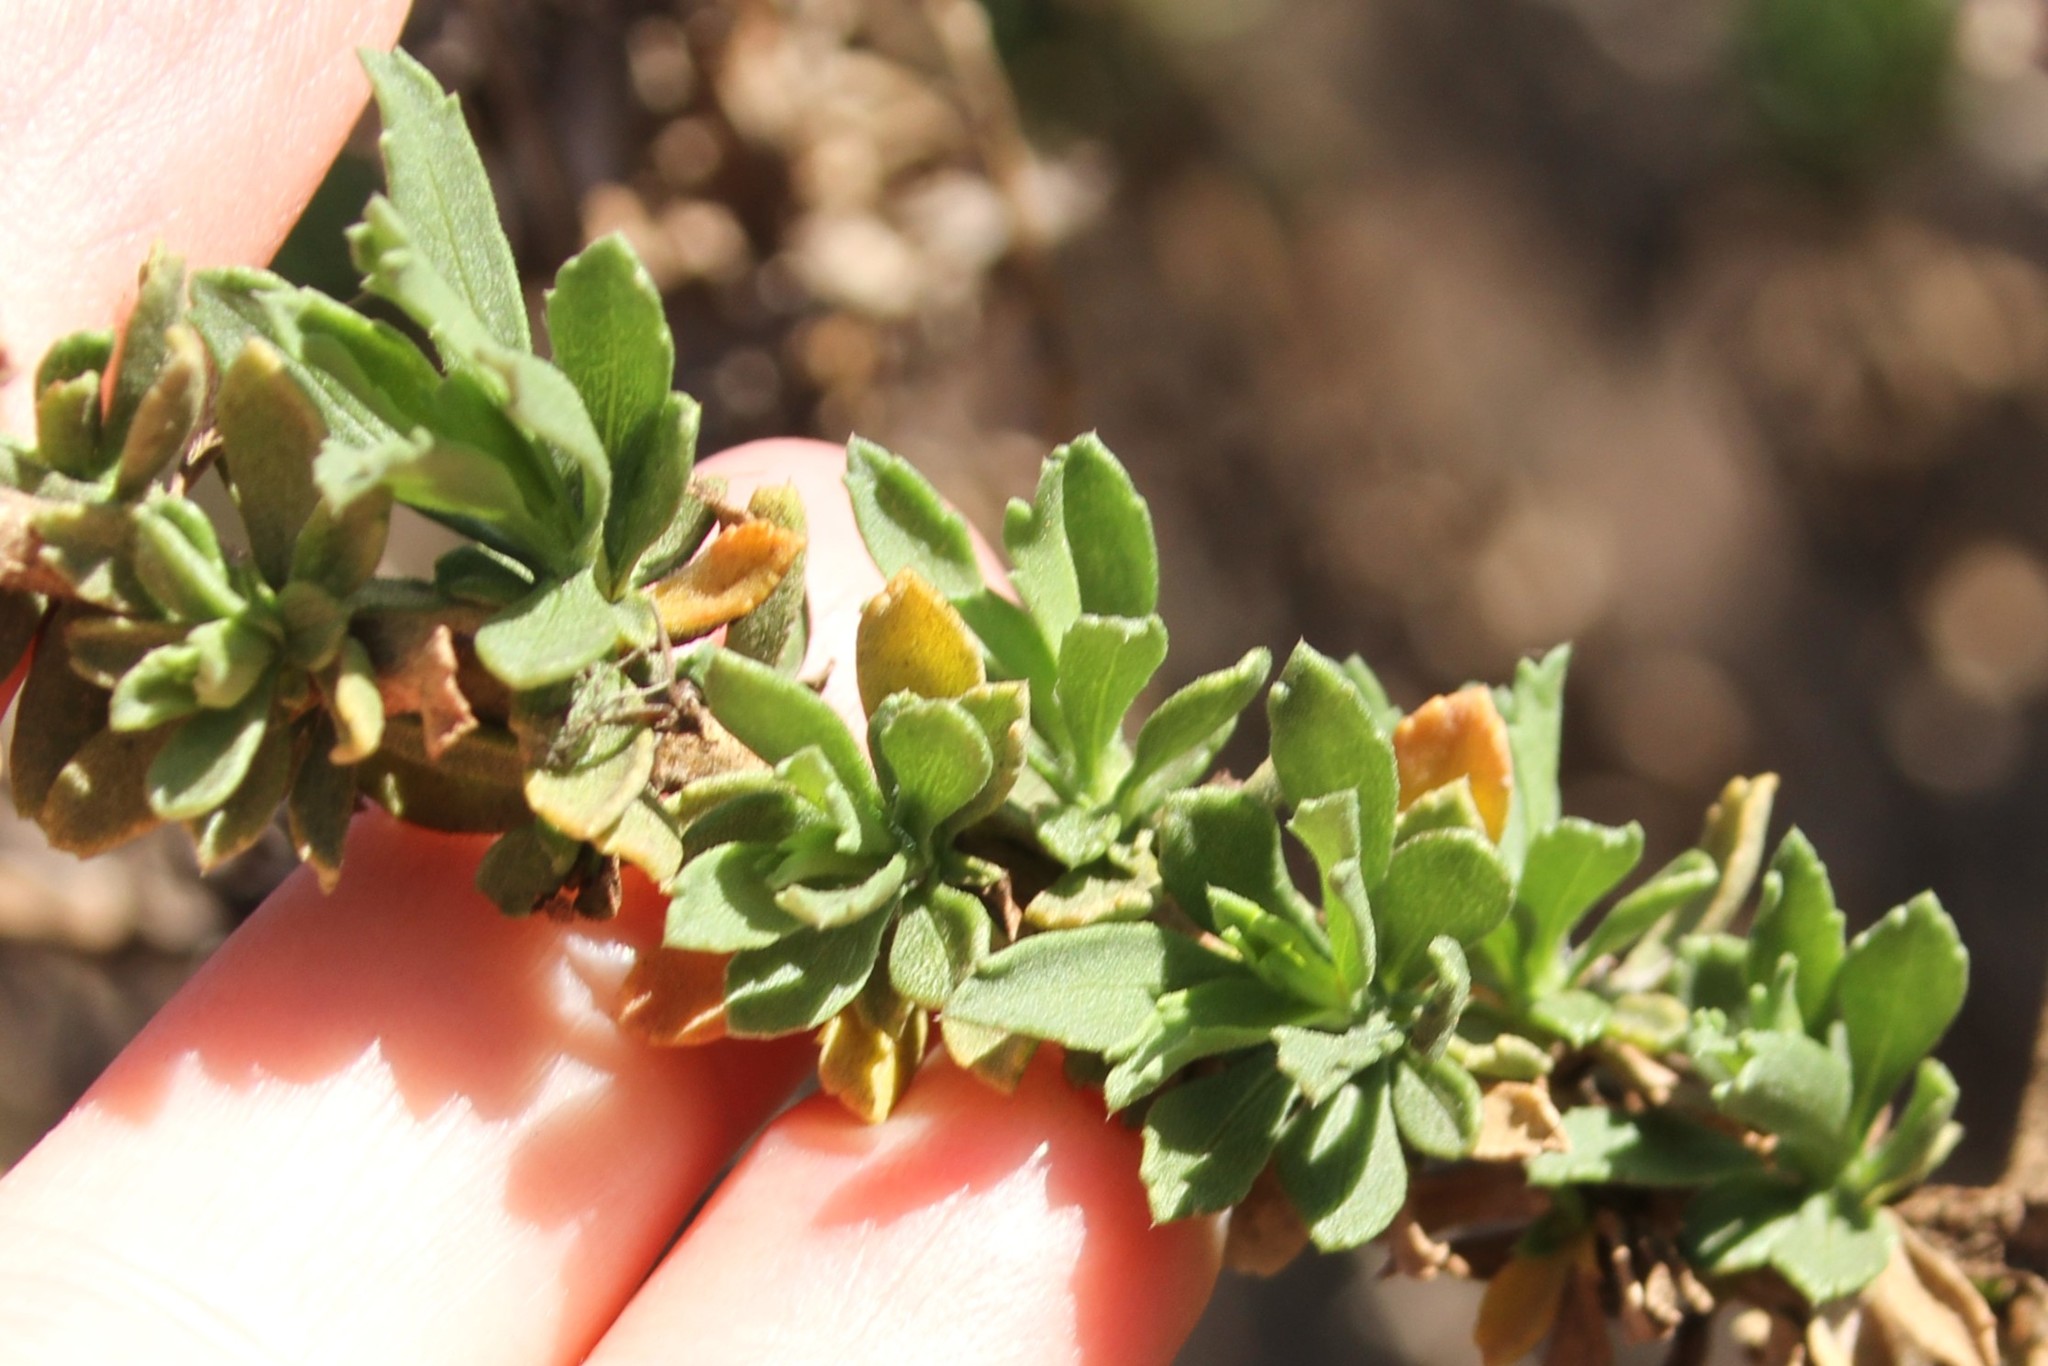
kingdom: Plantae
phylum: Tracheophyta
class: Magnoliopsida
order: Asterales
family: Asteraceae
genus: Isocoma
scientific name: Isocoma menziesii
